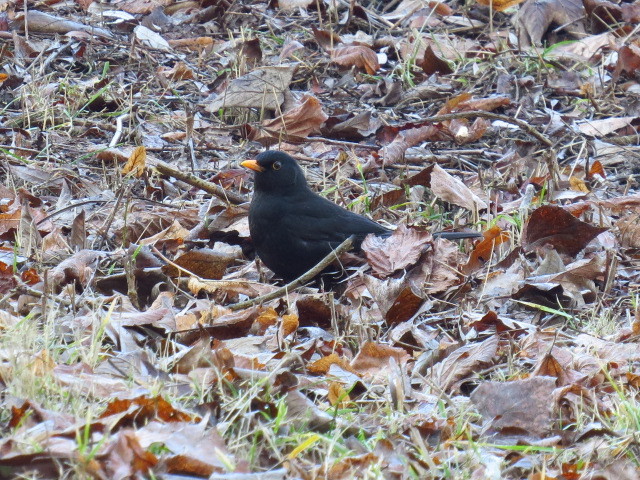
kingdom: Animalia
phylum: Chordata
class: Aves
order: Passeriformes
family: Turdidae
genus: Turdus
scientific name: Turdus merula
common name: Common blackbird
